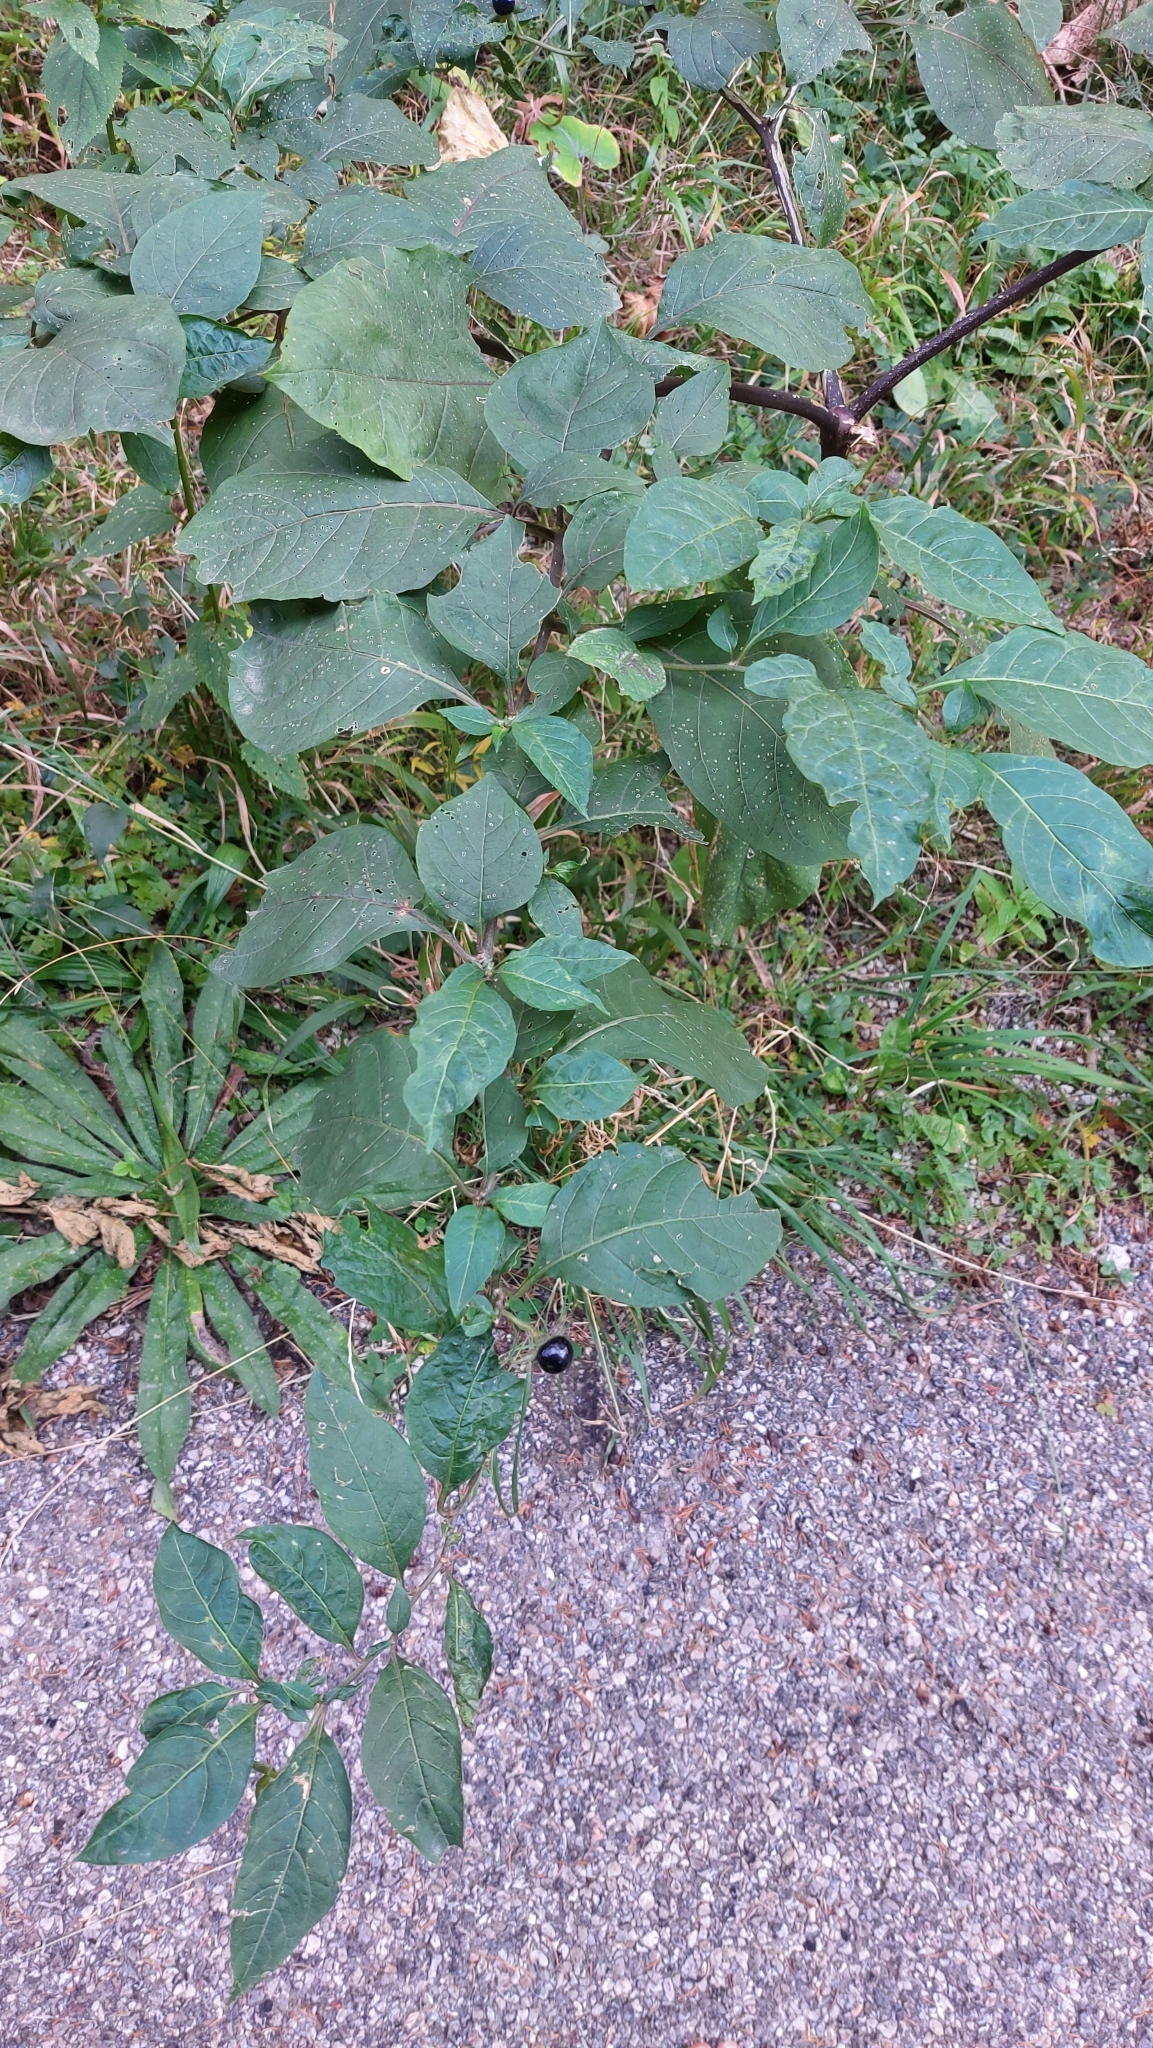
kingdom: Plantae
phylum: Tracheophyta
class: Magnoliopsida
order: Solanales
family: Solanaceae
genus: Atropa
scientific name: Atropa belladonna
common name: Deadly nightshade
